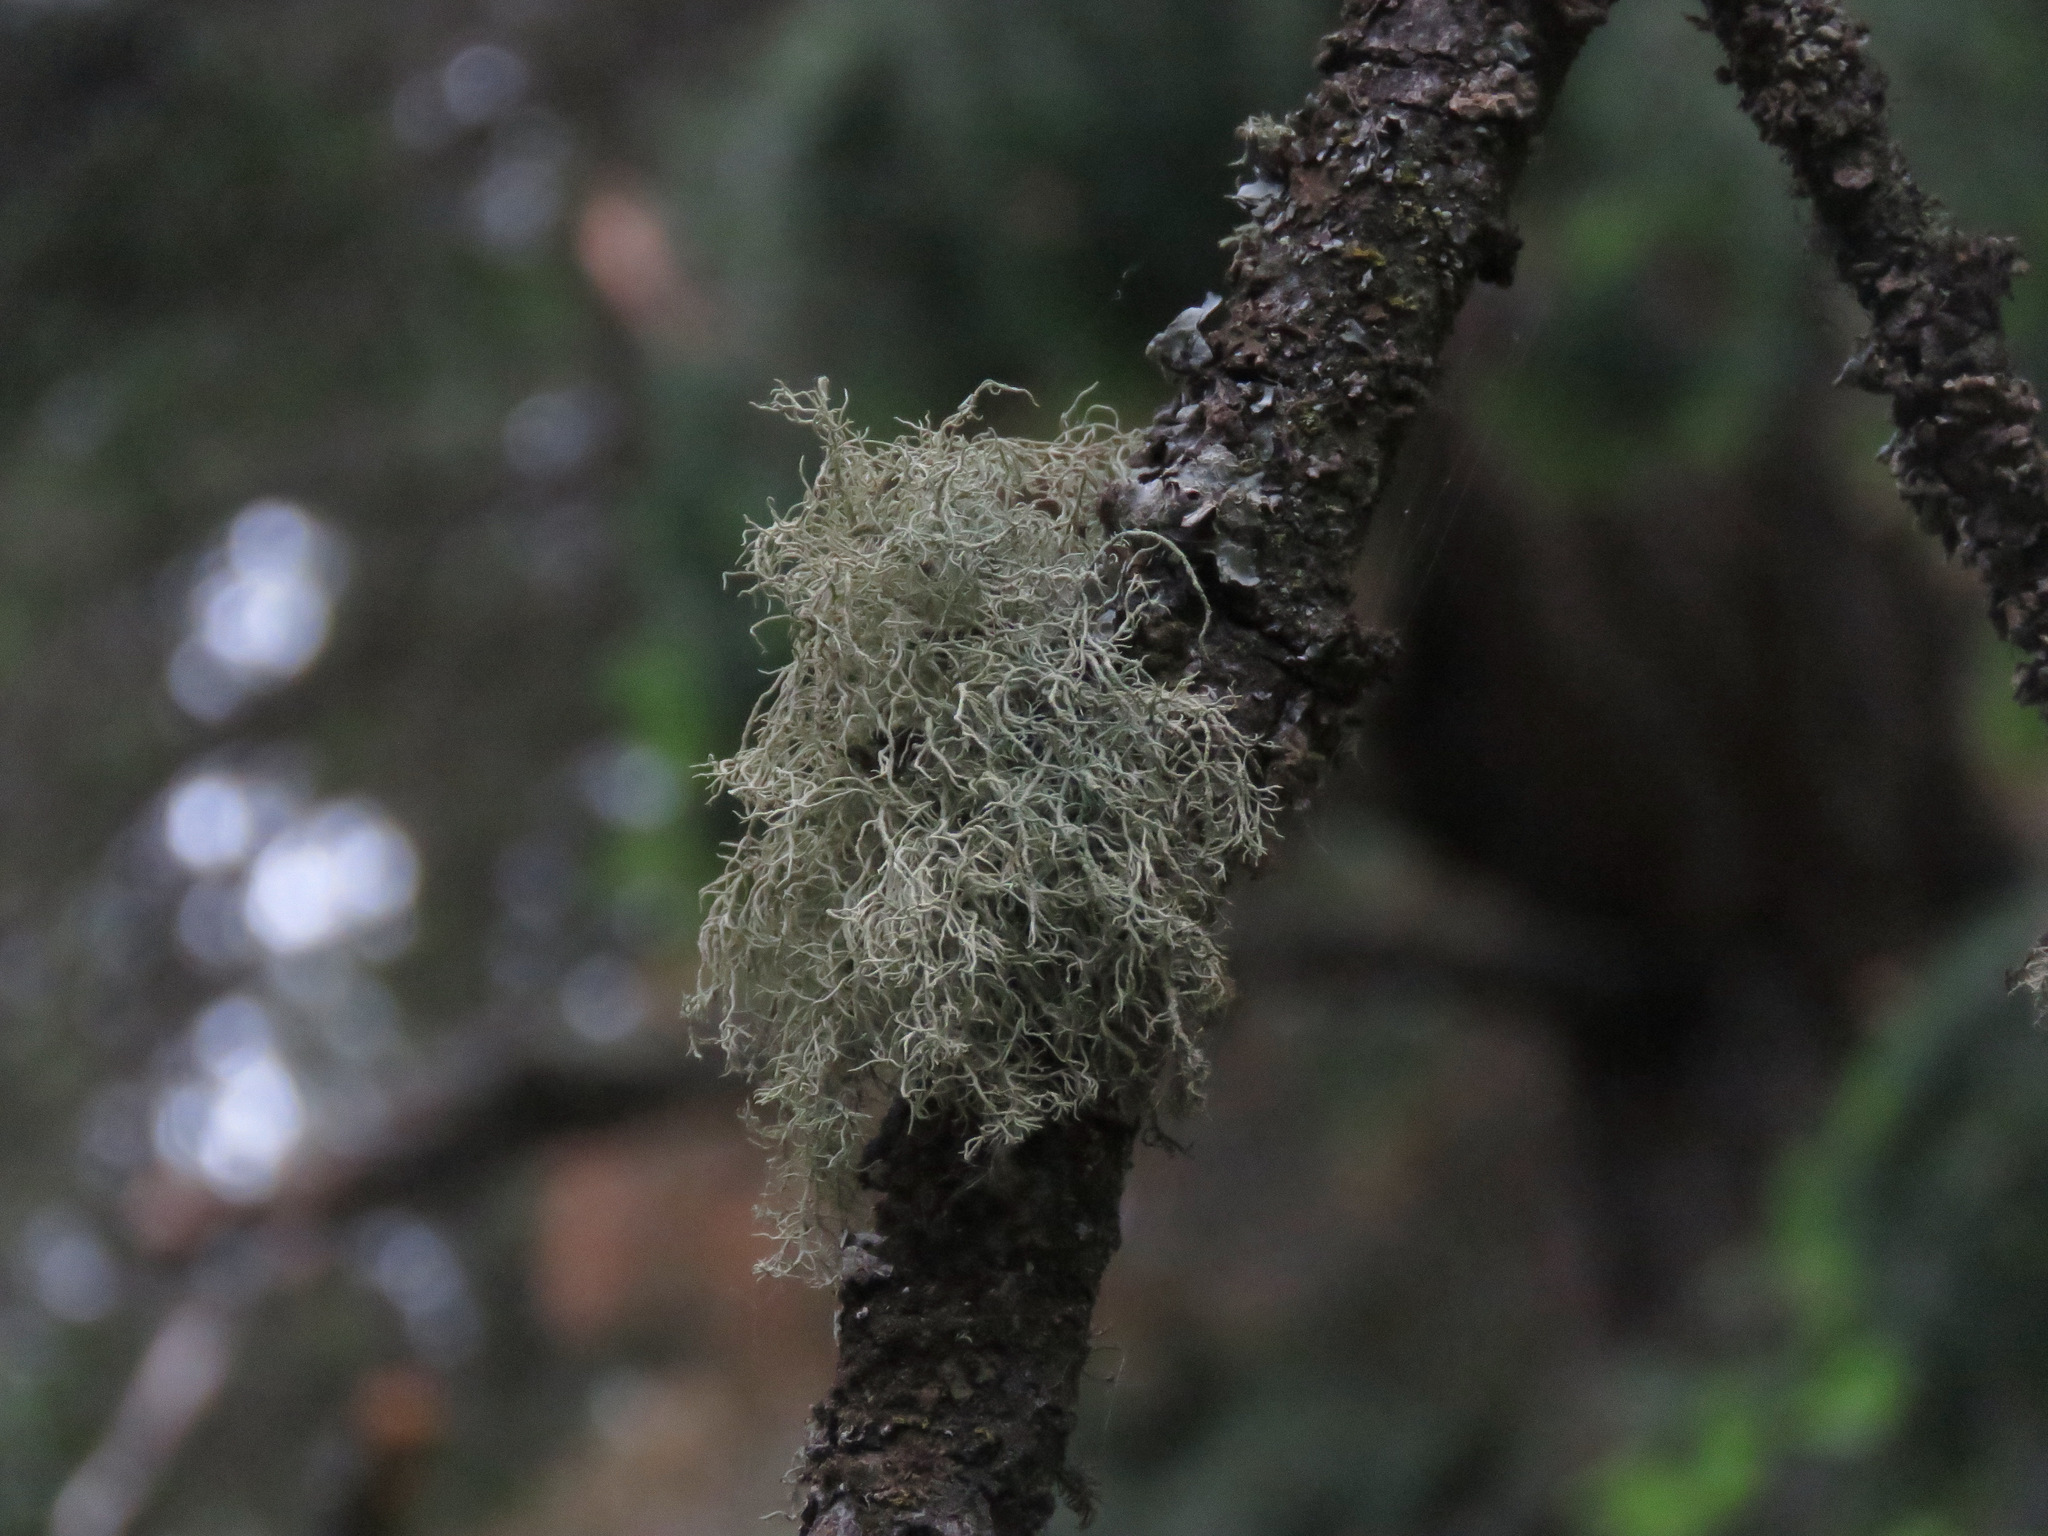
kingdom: Fungi
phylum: Ascomycota
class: Lecanoromycetes
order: Lecanorales
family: Parmeliaceae
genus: Usnea
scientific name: Usnea hirta
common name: Bristly beard lichen
